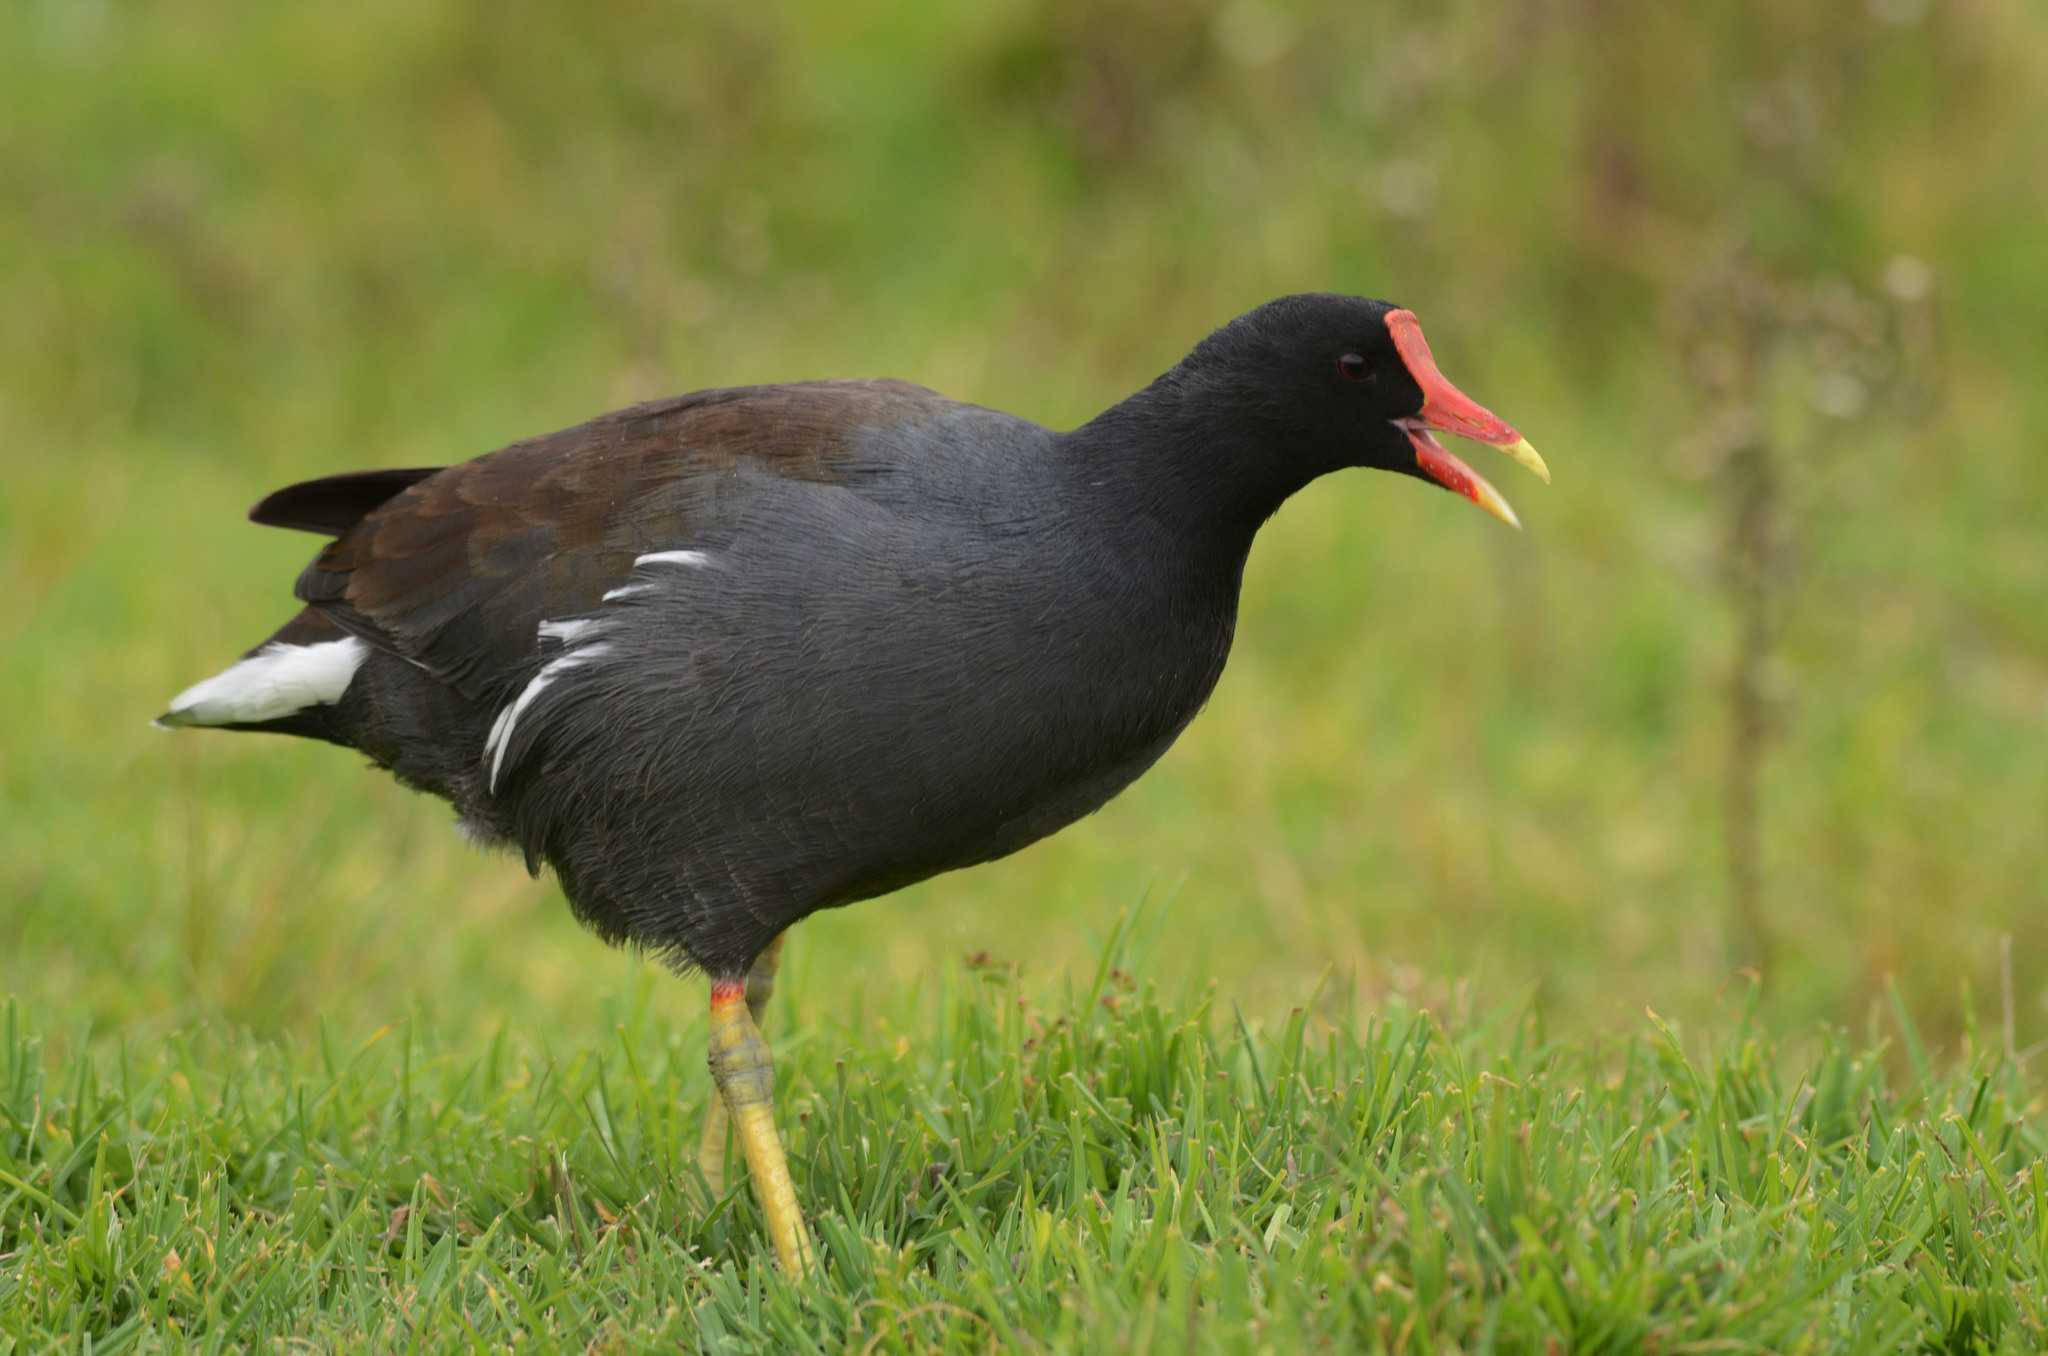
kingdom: Animalia
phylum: Chordata
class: Aves
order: Gruiformes
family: Rallidae
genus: Gallinula
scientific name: Gallinula chloropus
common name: Common moorhen
